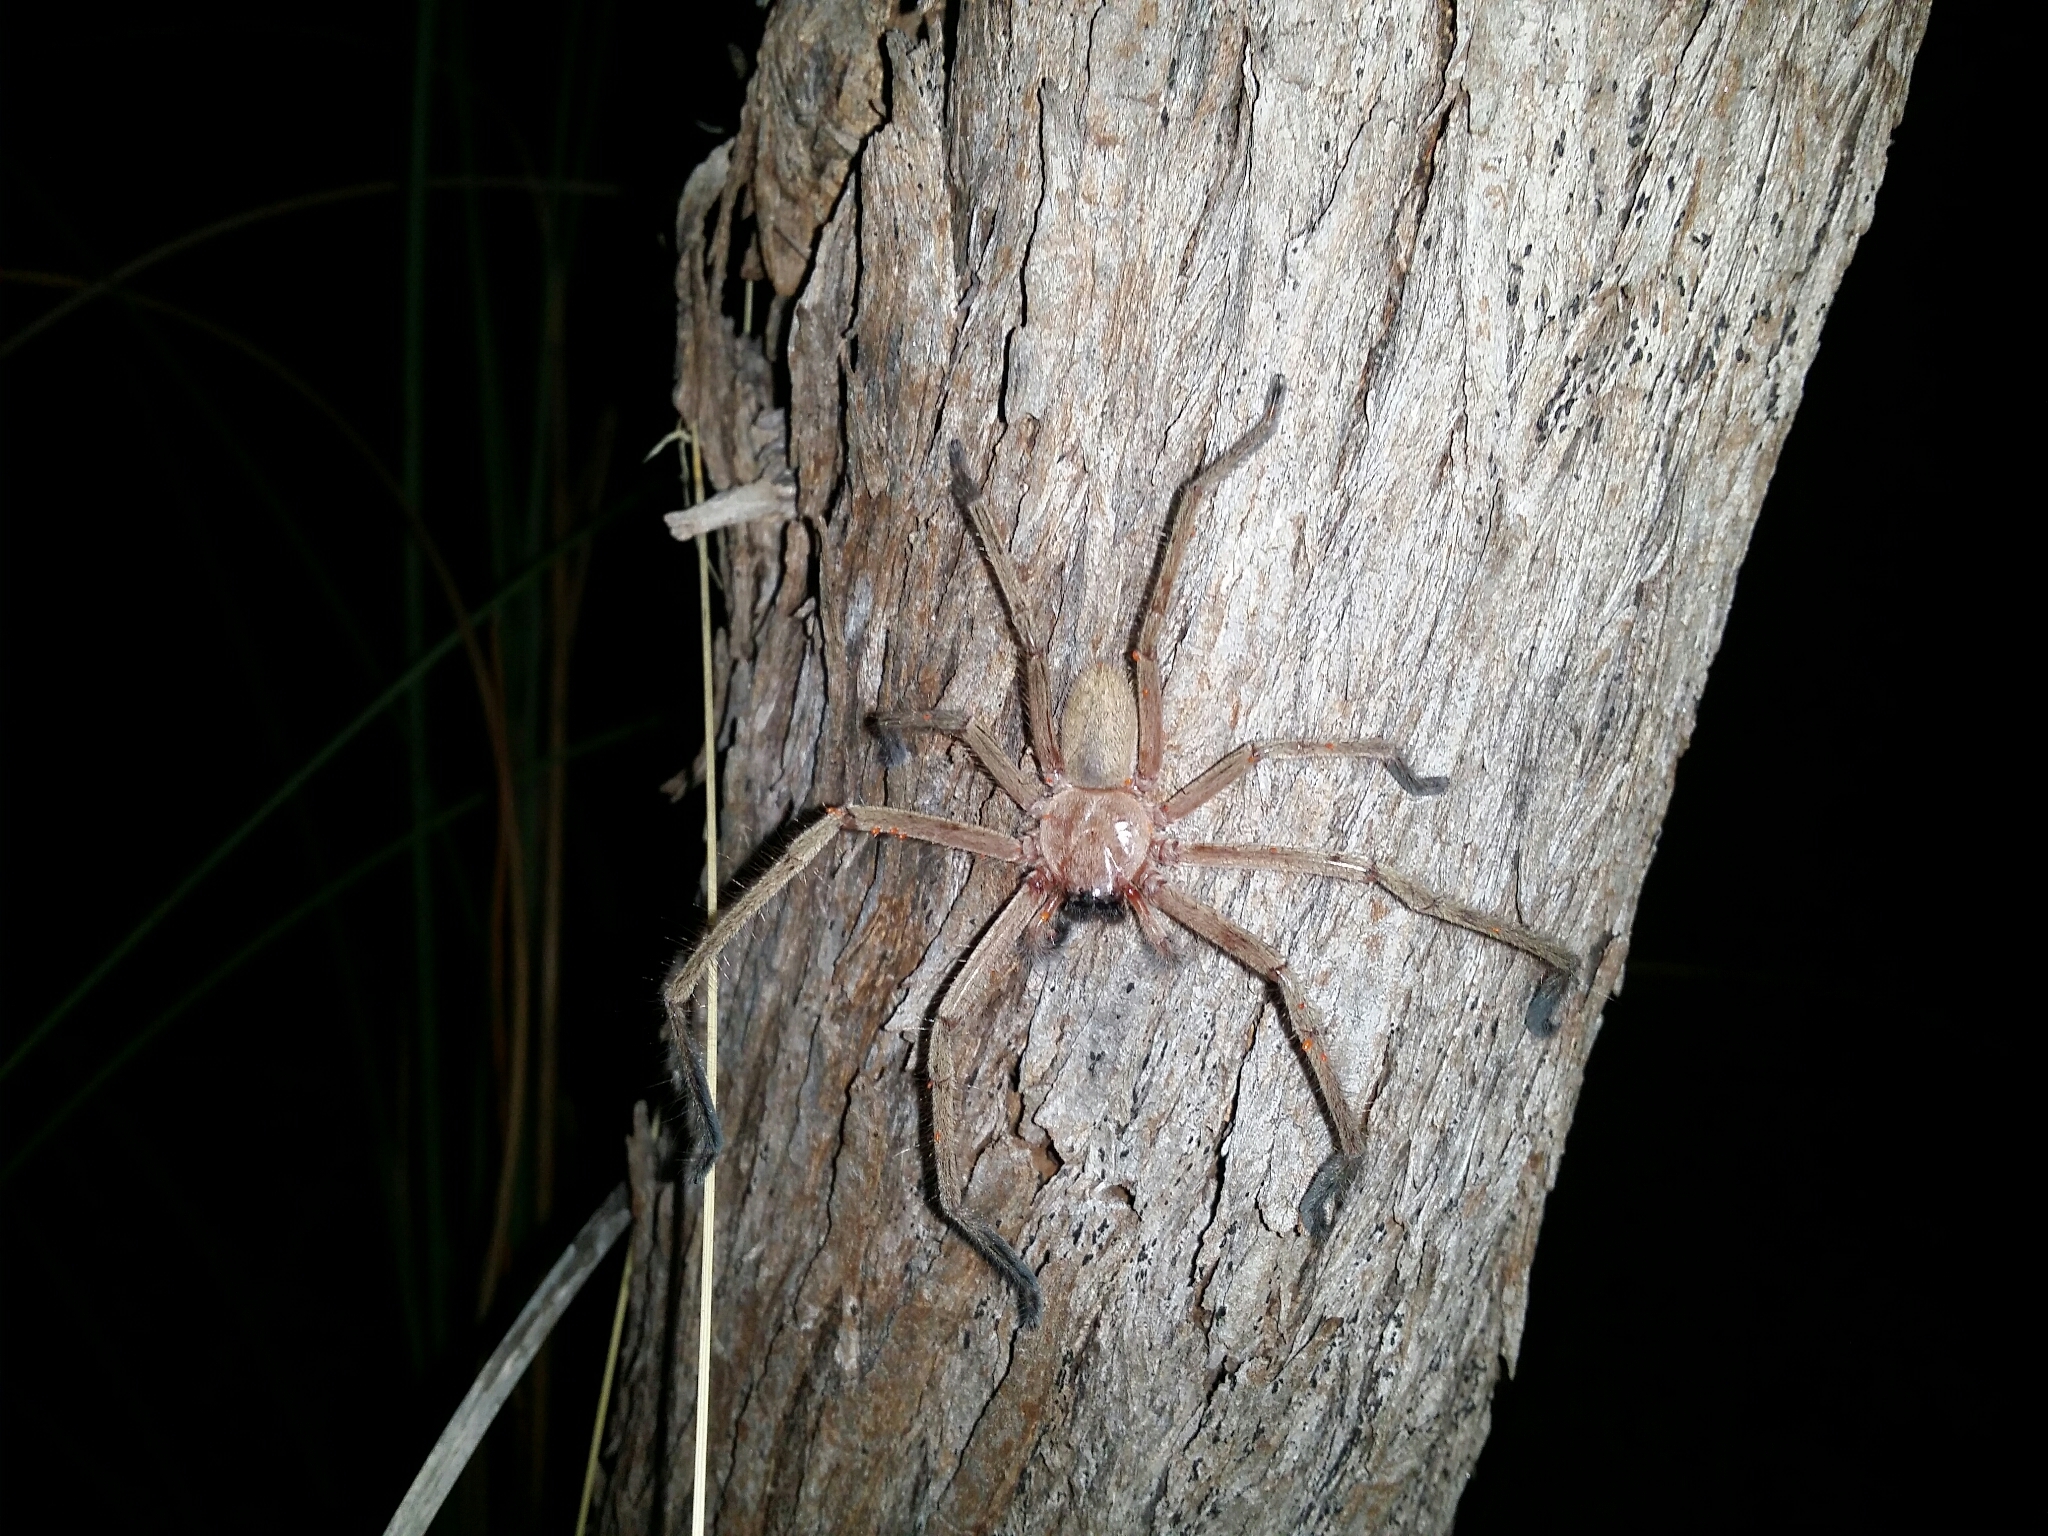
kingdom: Animalia
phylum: Arthropoda
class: Arachnida
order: Araneae
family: Sparassidae
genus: Delena
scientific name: Delena cancerides
